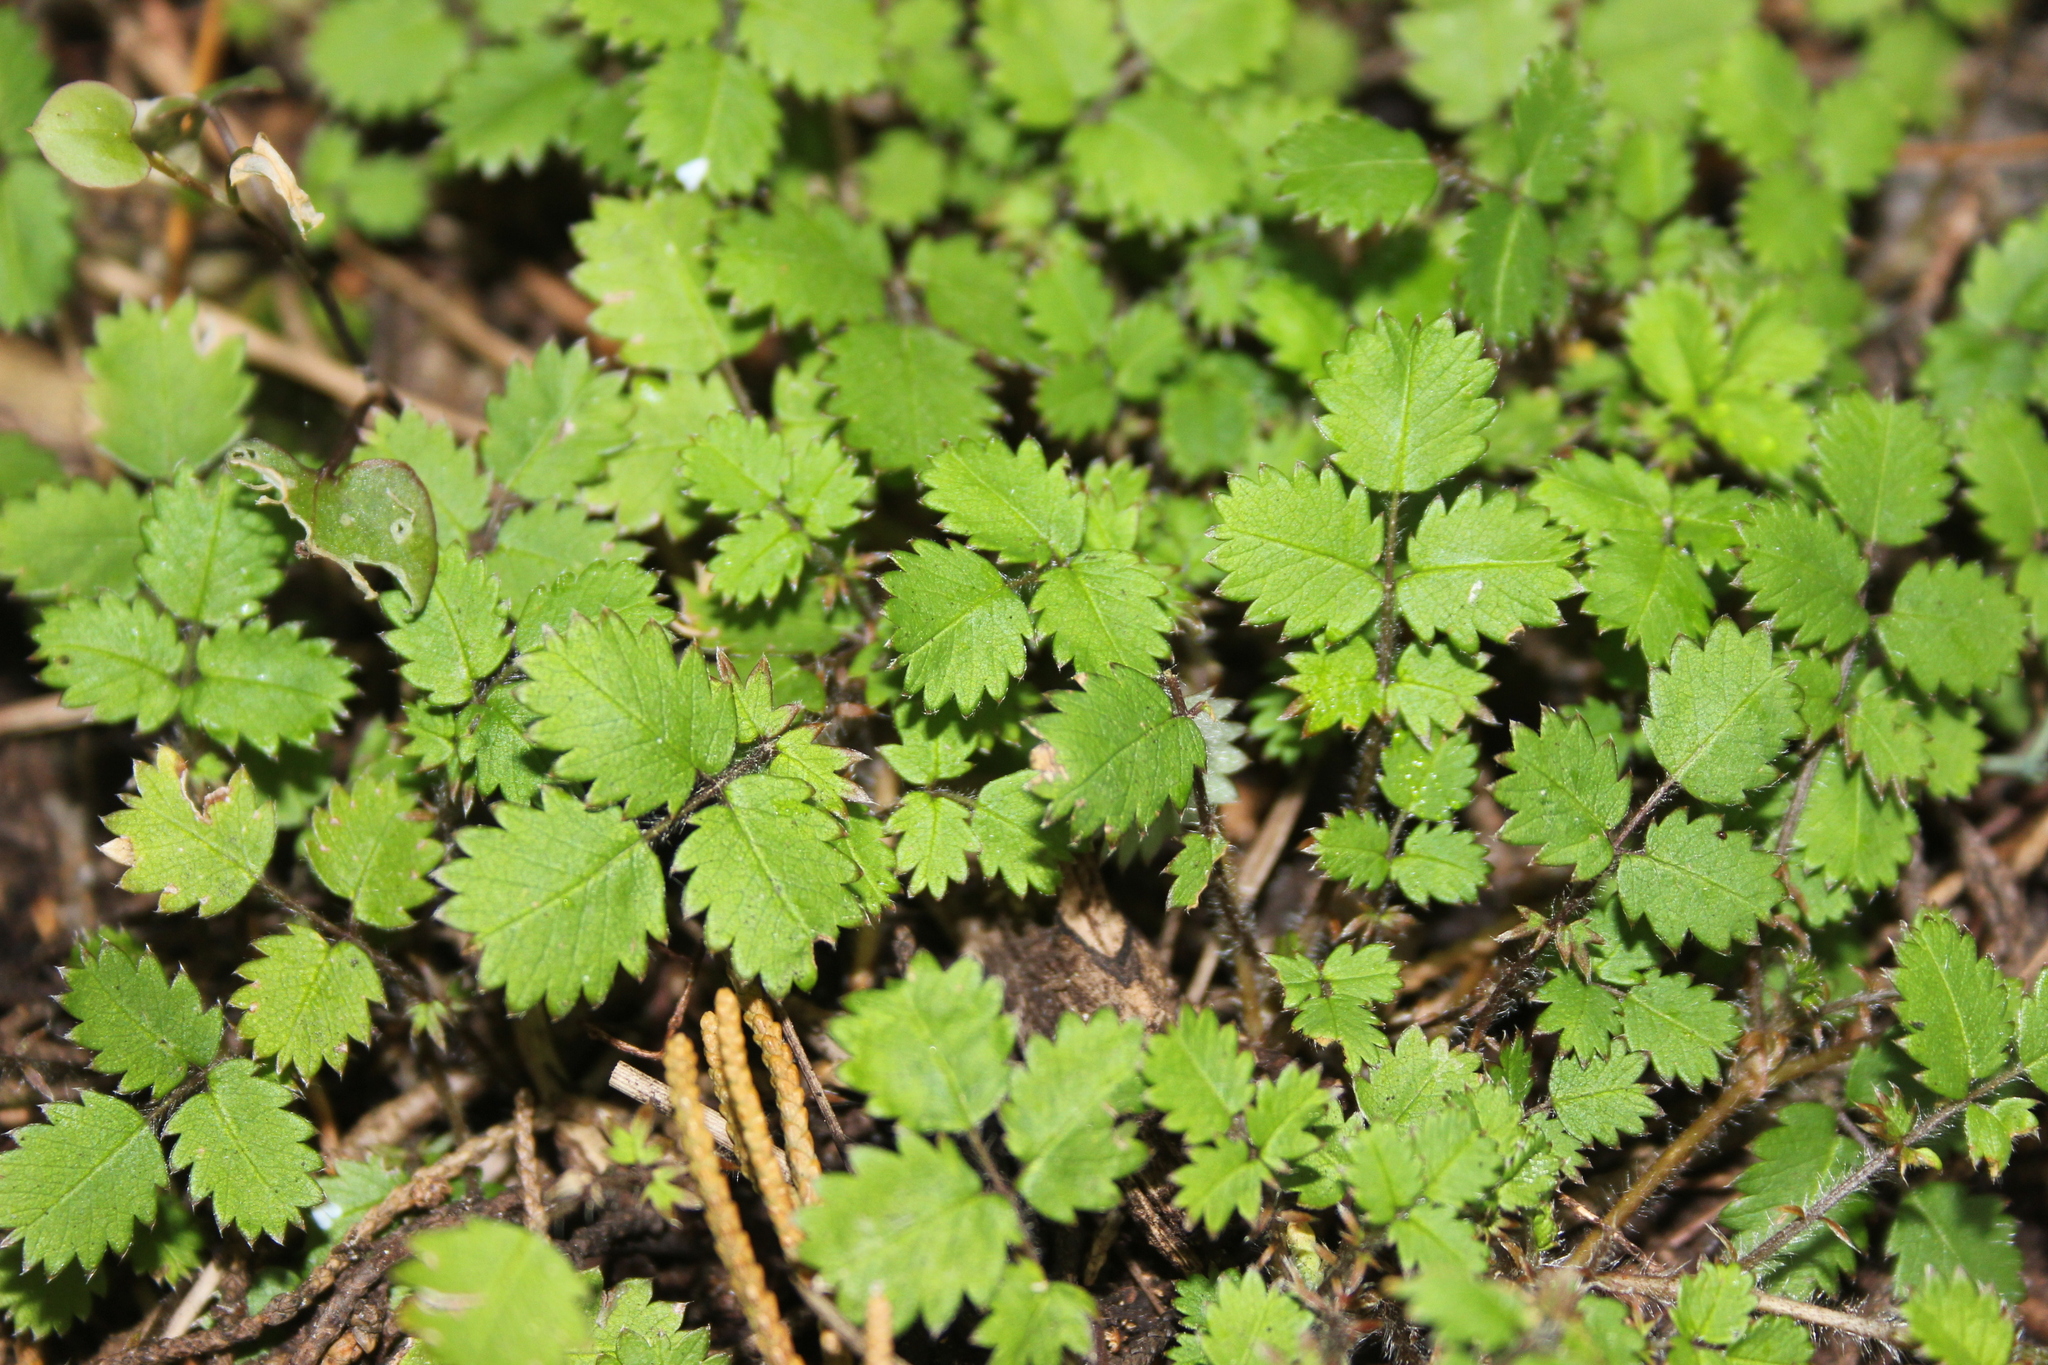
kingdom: Plantae
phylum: Tracheophyta
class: Magnoliopsida
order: Rosales
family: Rosaceae
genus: Acaena
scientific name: Acaena juvenca
